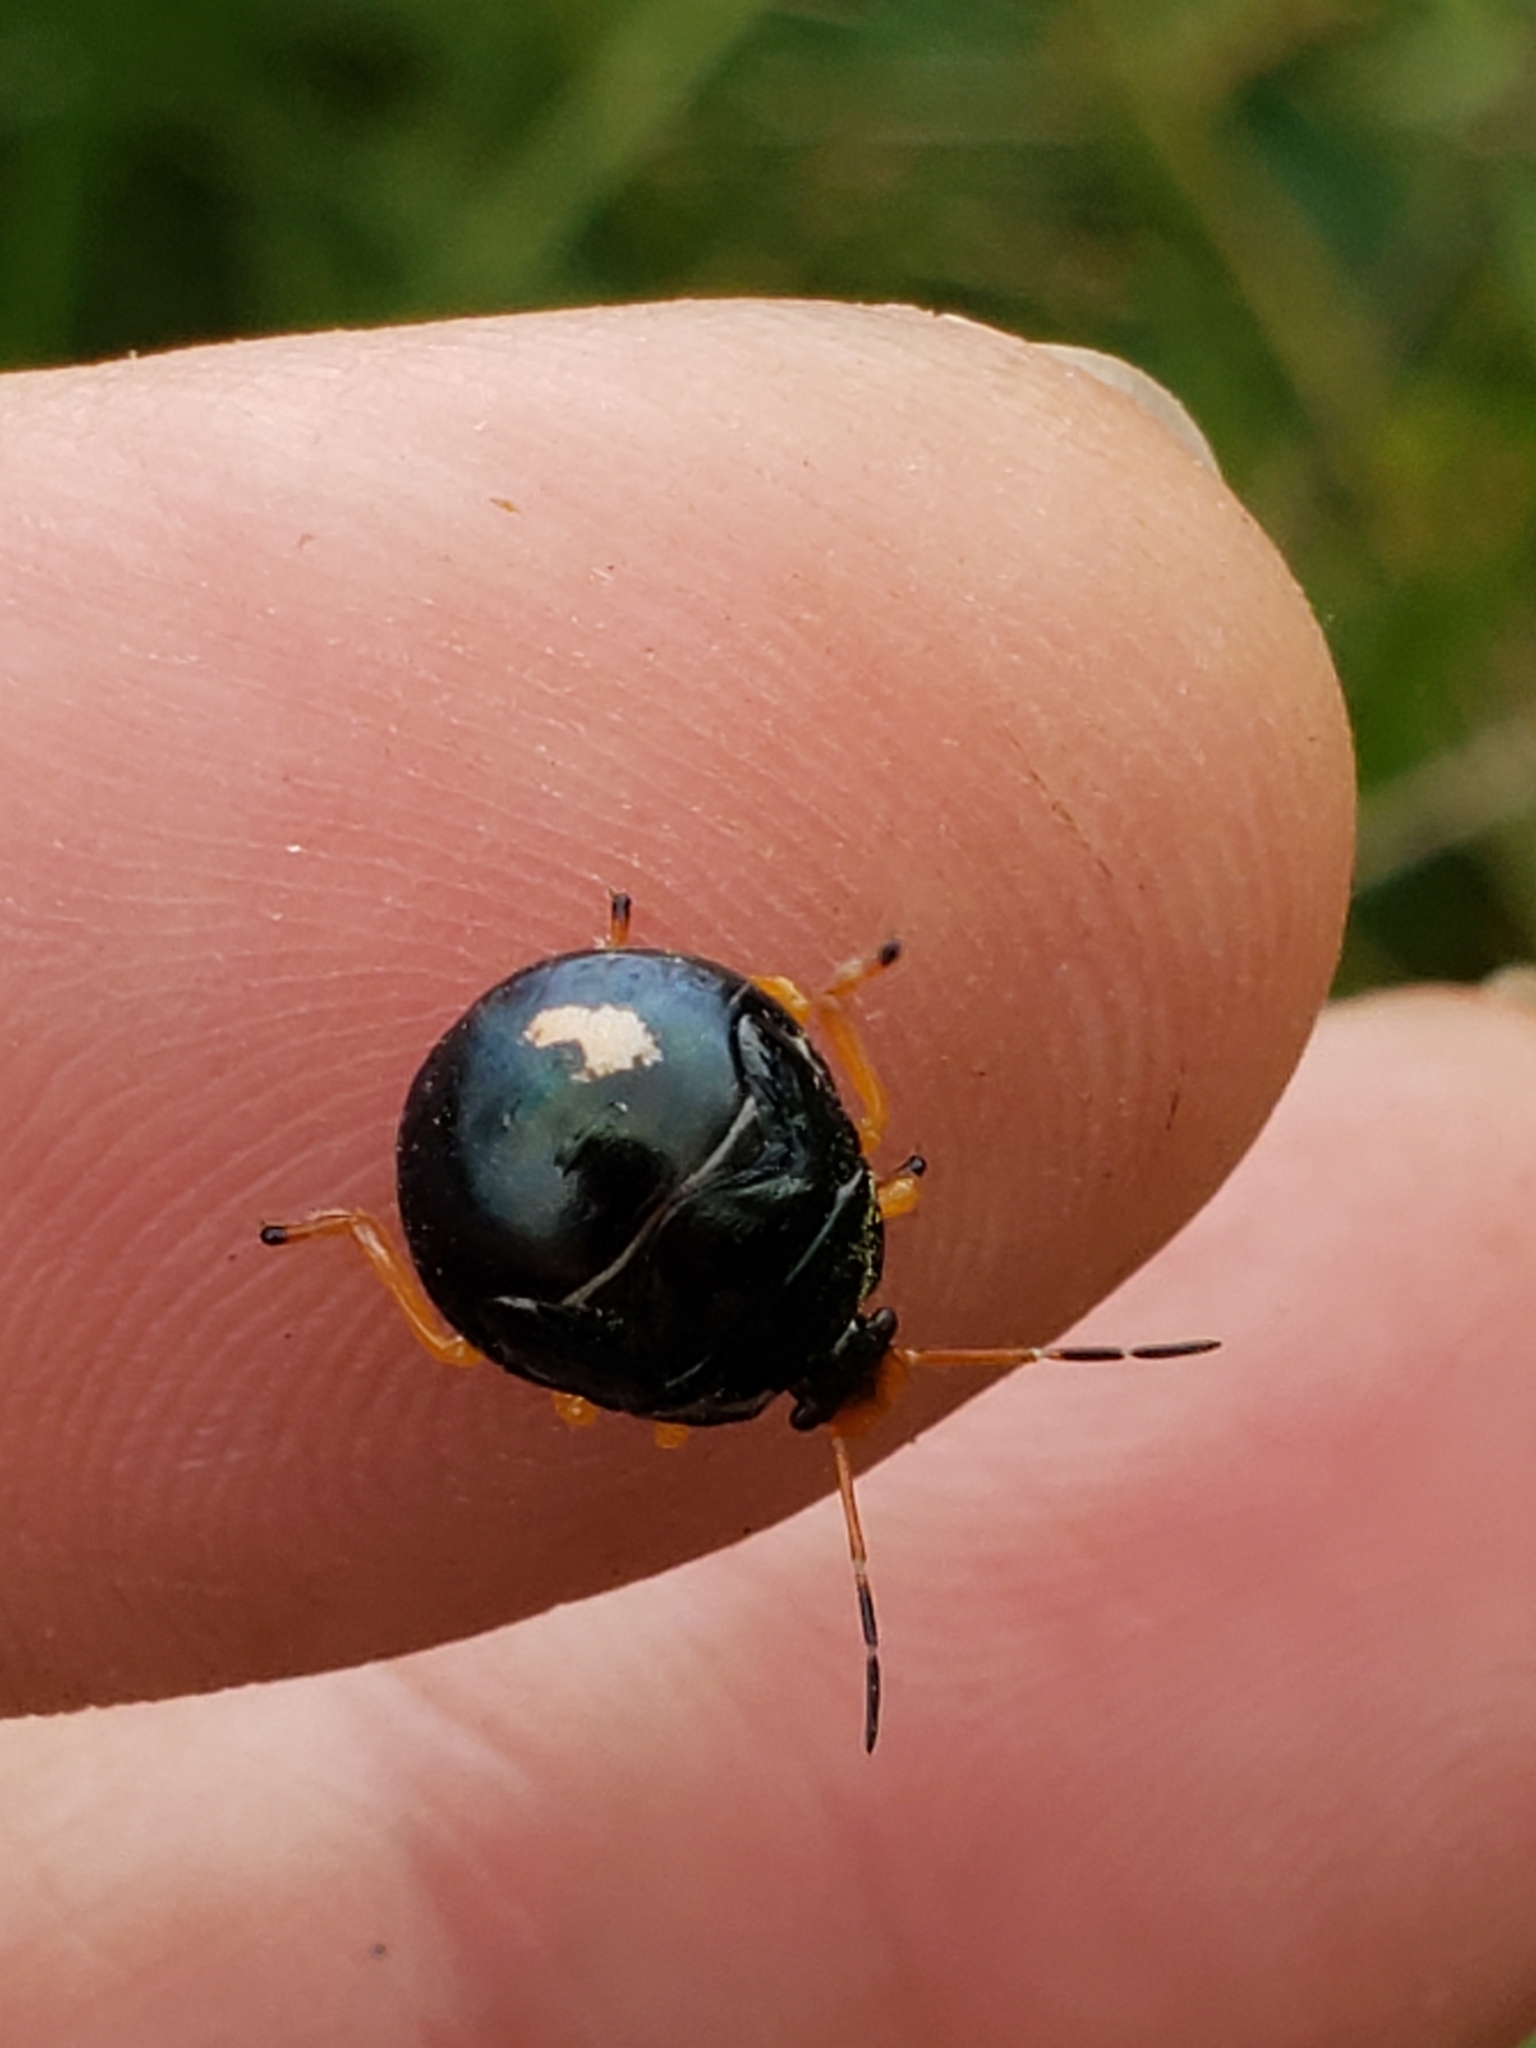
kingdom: Animalia
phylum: Arthropoda
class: Insecta
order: Hemiptera
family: Pentatomidae
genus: Stiretrus
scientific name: Stiretrus anchorago
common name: Anchor stink bug
